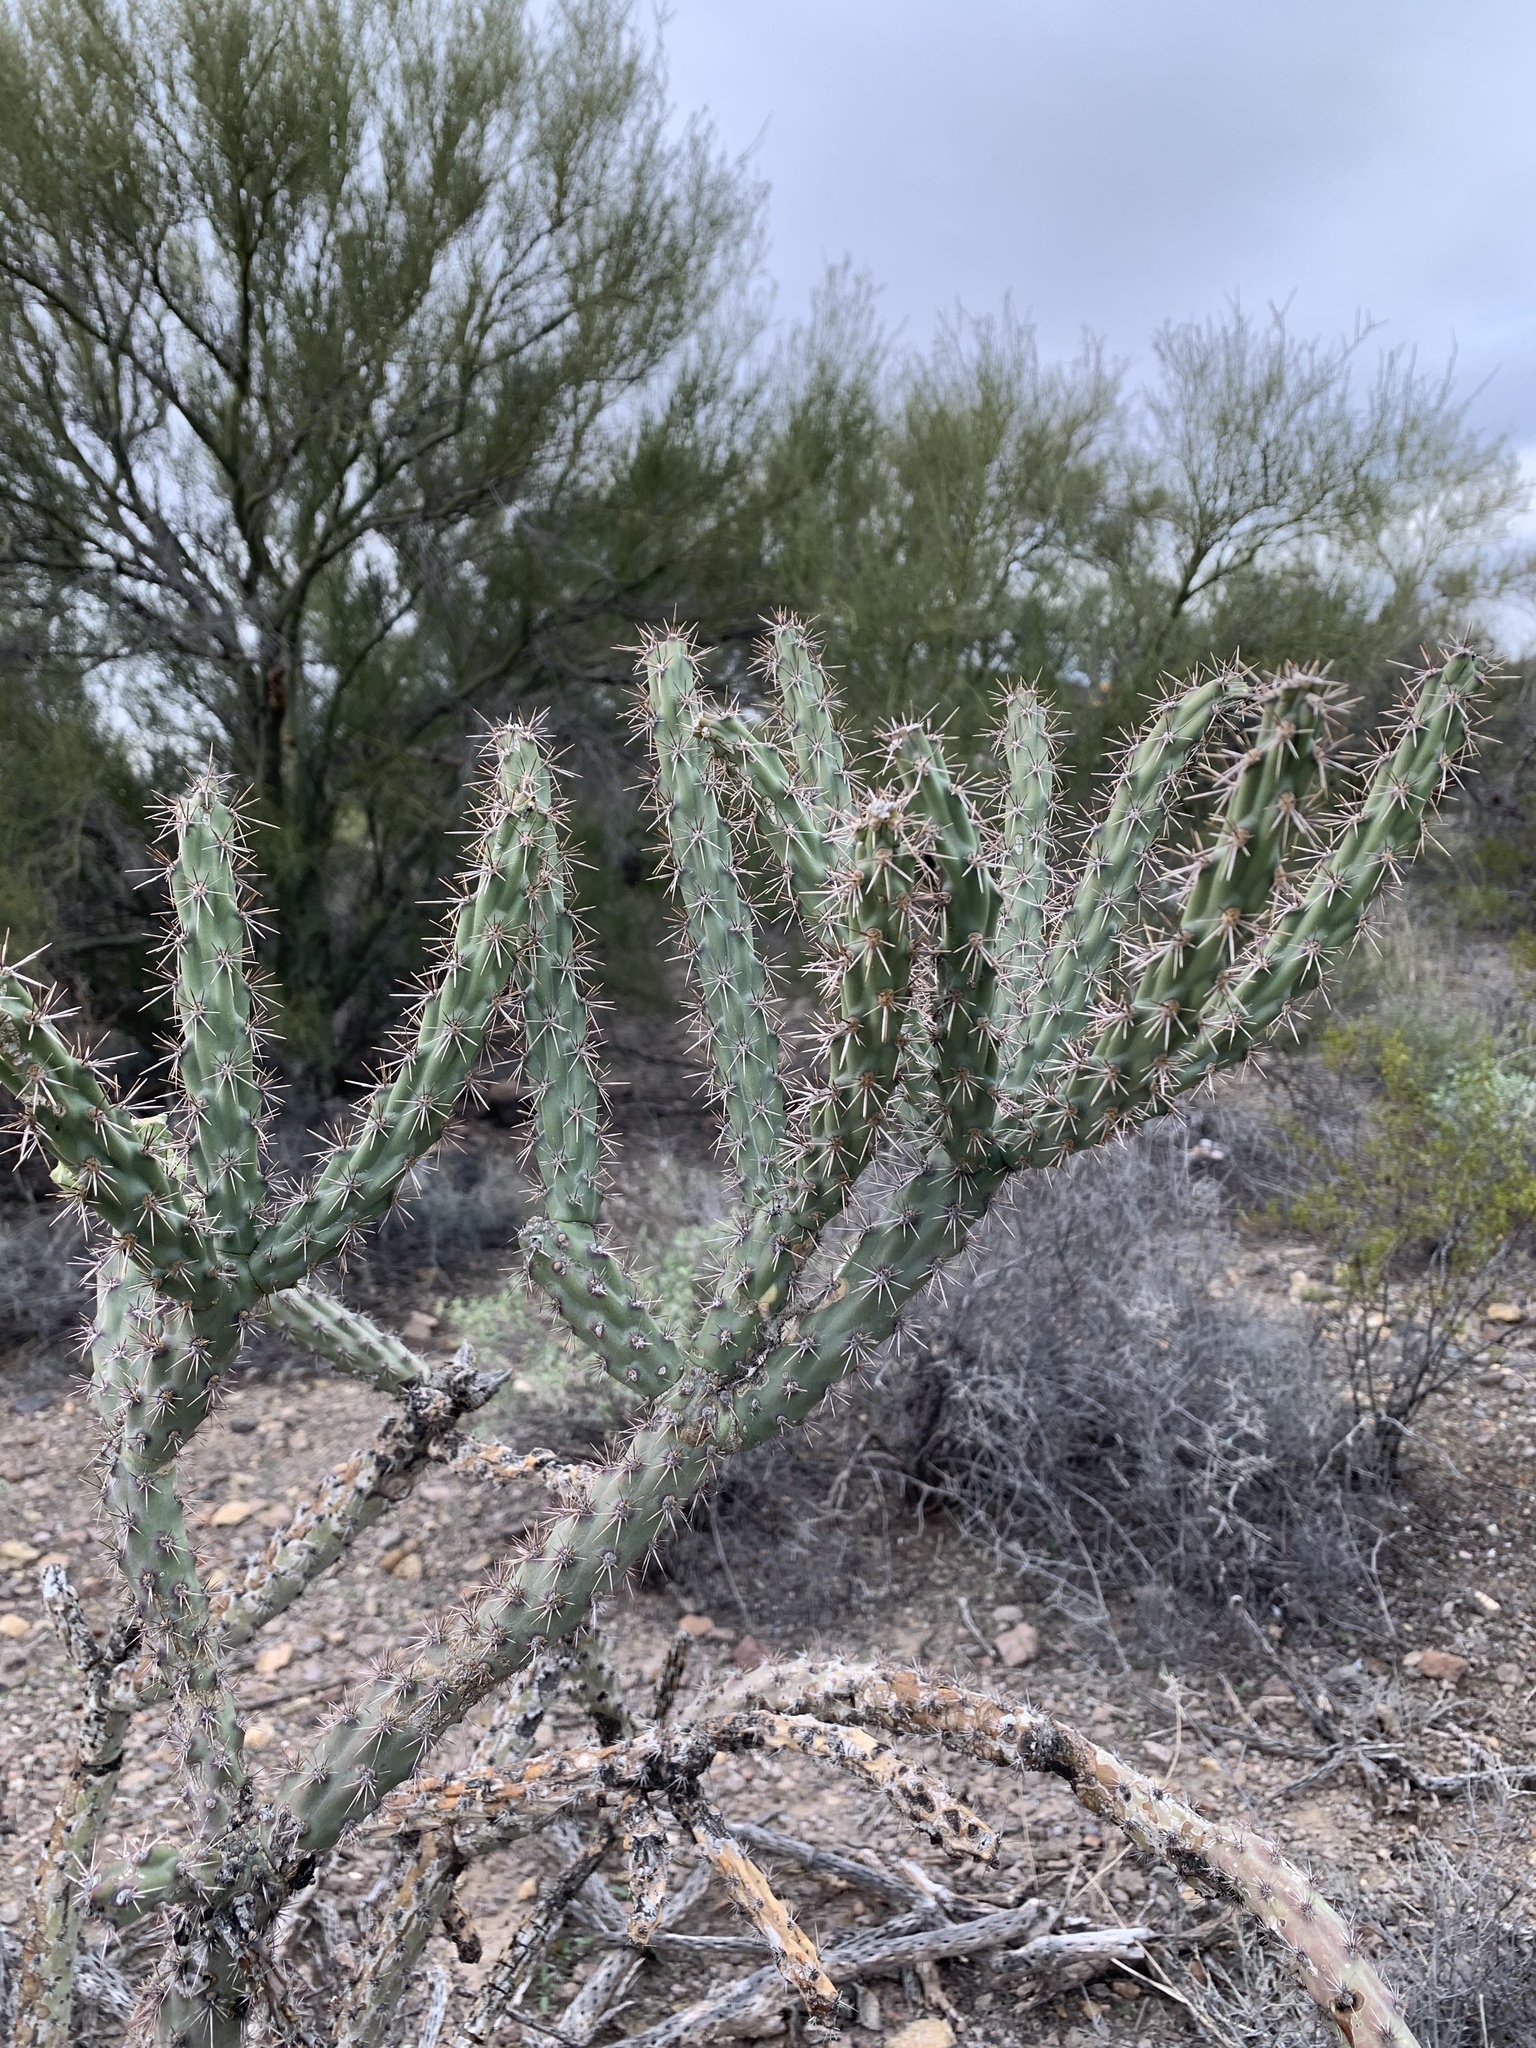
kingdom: Plantae
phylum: Tracheophyta
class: Magnoliopsida
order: Caryophyllales
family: Cactaceae
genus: Cylindropuntia
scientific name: Cylindropuntia acanthocarpa
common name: Buckhorn cholla
